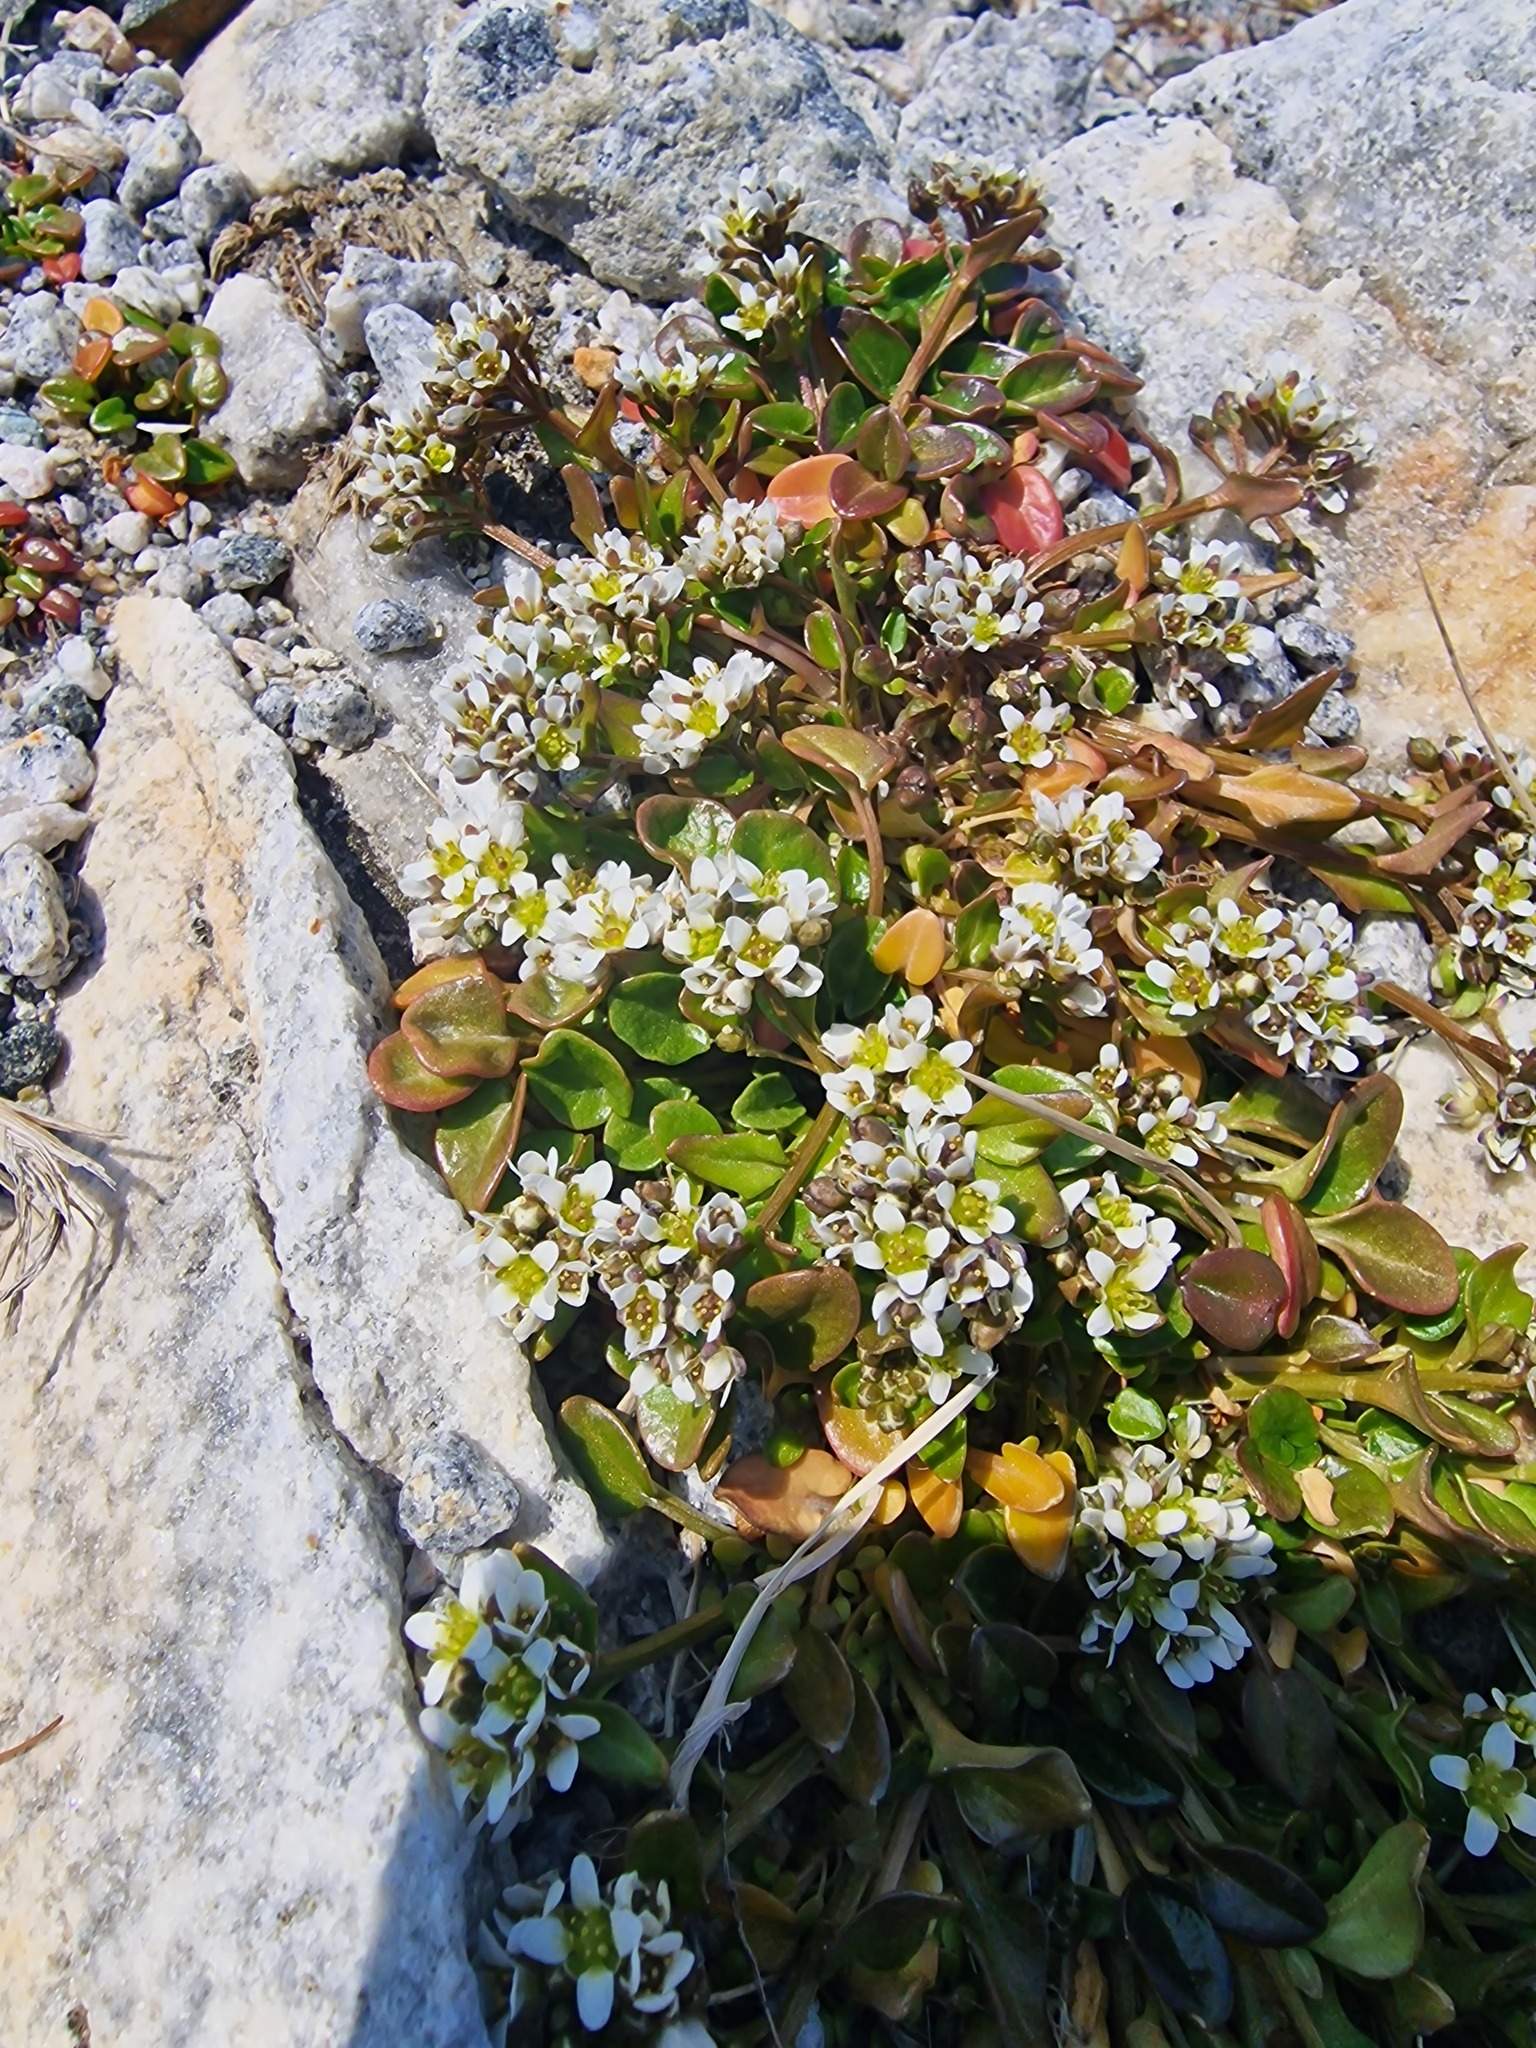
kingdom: Plantae
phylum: Tracheophyta
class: Magnoliopsida
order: Brassicales
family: Brassicaceae
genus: Cochlearia
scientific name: Cochlearia groenlandica
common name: Danish scurvygrass
